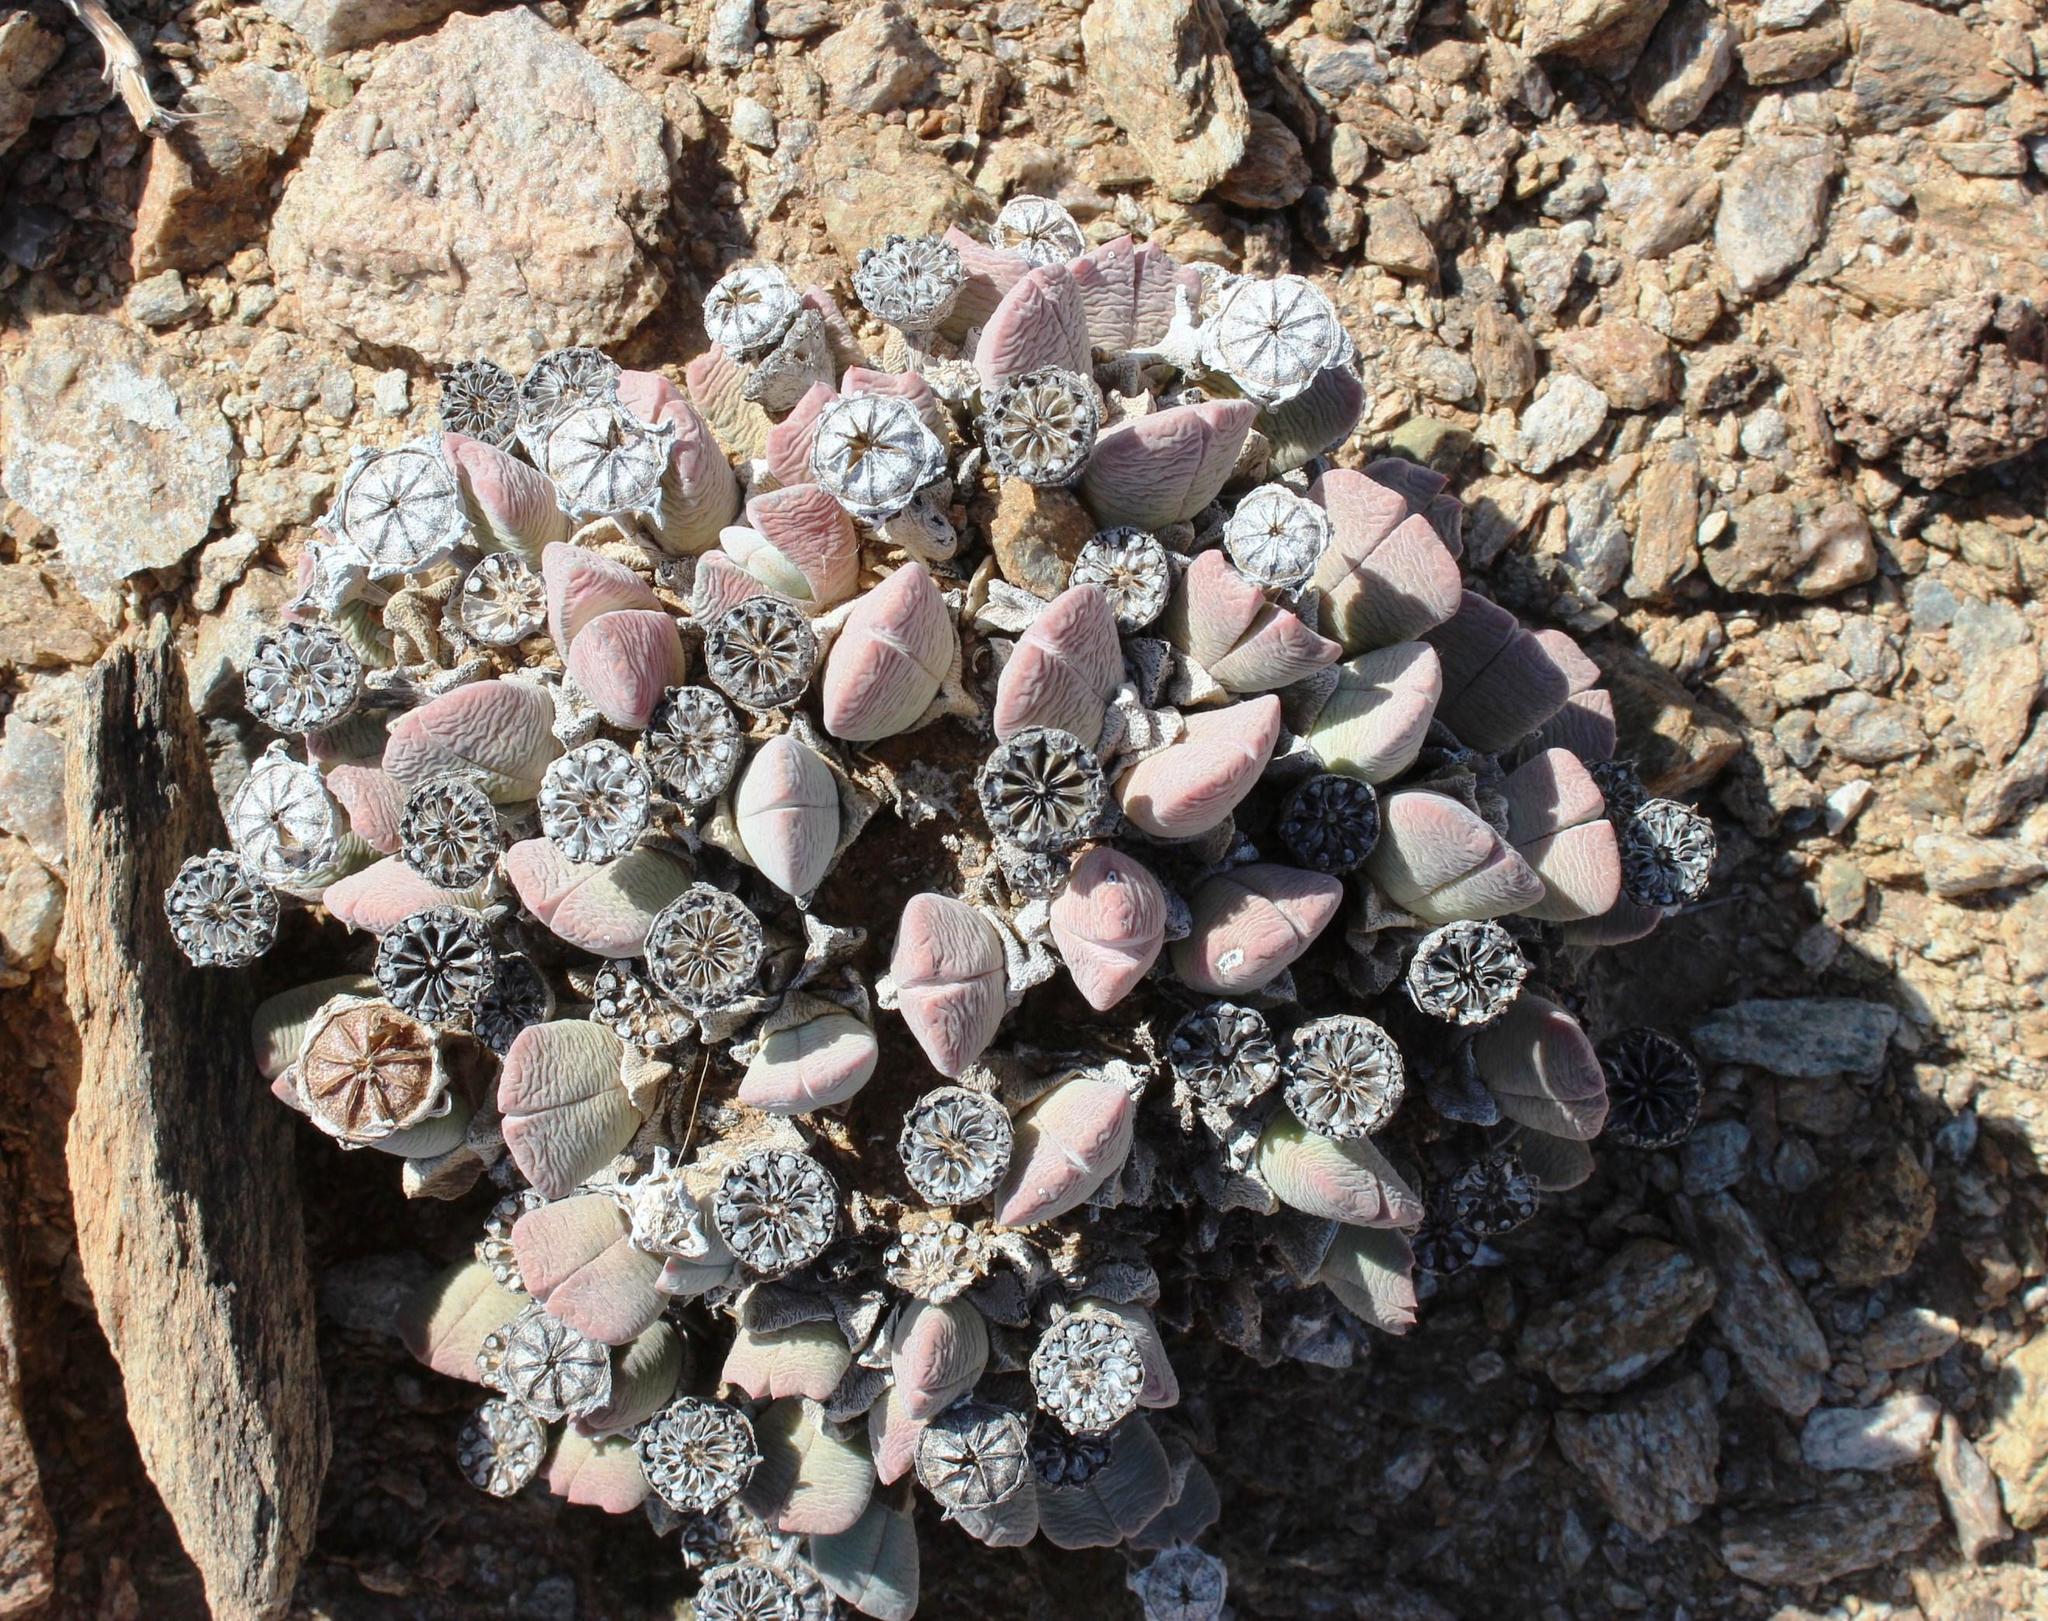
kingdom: Plantae
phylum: Tracheophyta
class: Magnoliopsida
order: Caryophyllales
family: Aizoaceae
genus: Cheiridopsis
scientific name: Cheiridopsis brownii
